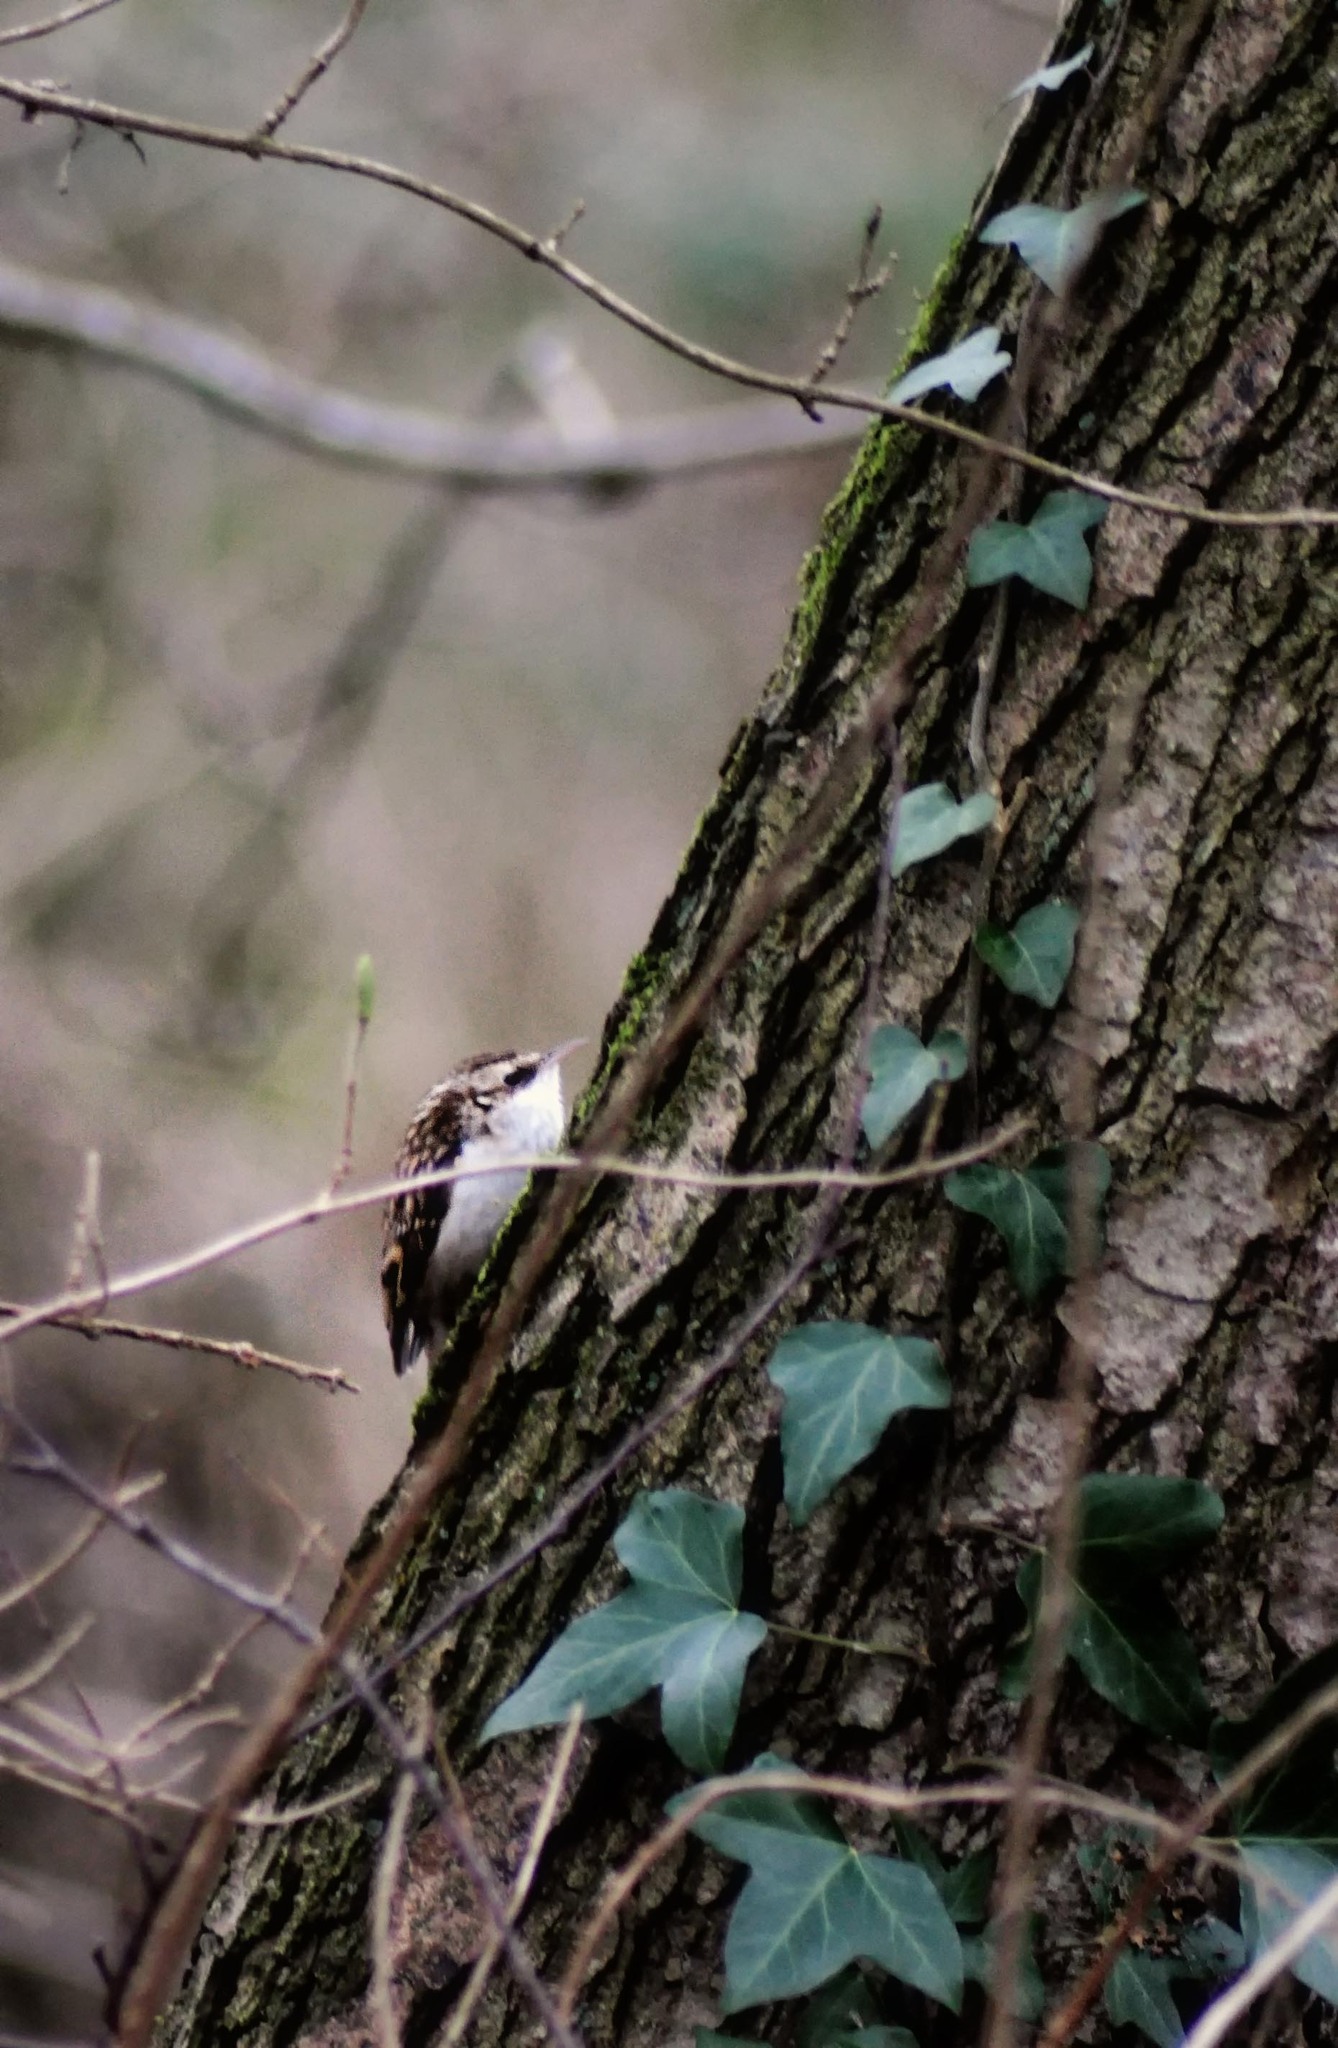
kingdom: Animalia
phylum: Chordata
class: Aves
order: Passeriformes
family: Certhiidae
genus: Certhia
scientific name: Certhia familiaris
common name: Eurasian treecreeper
